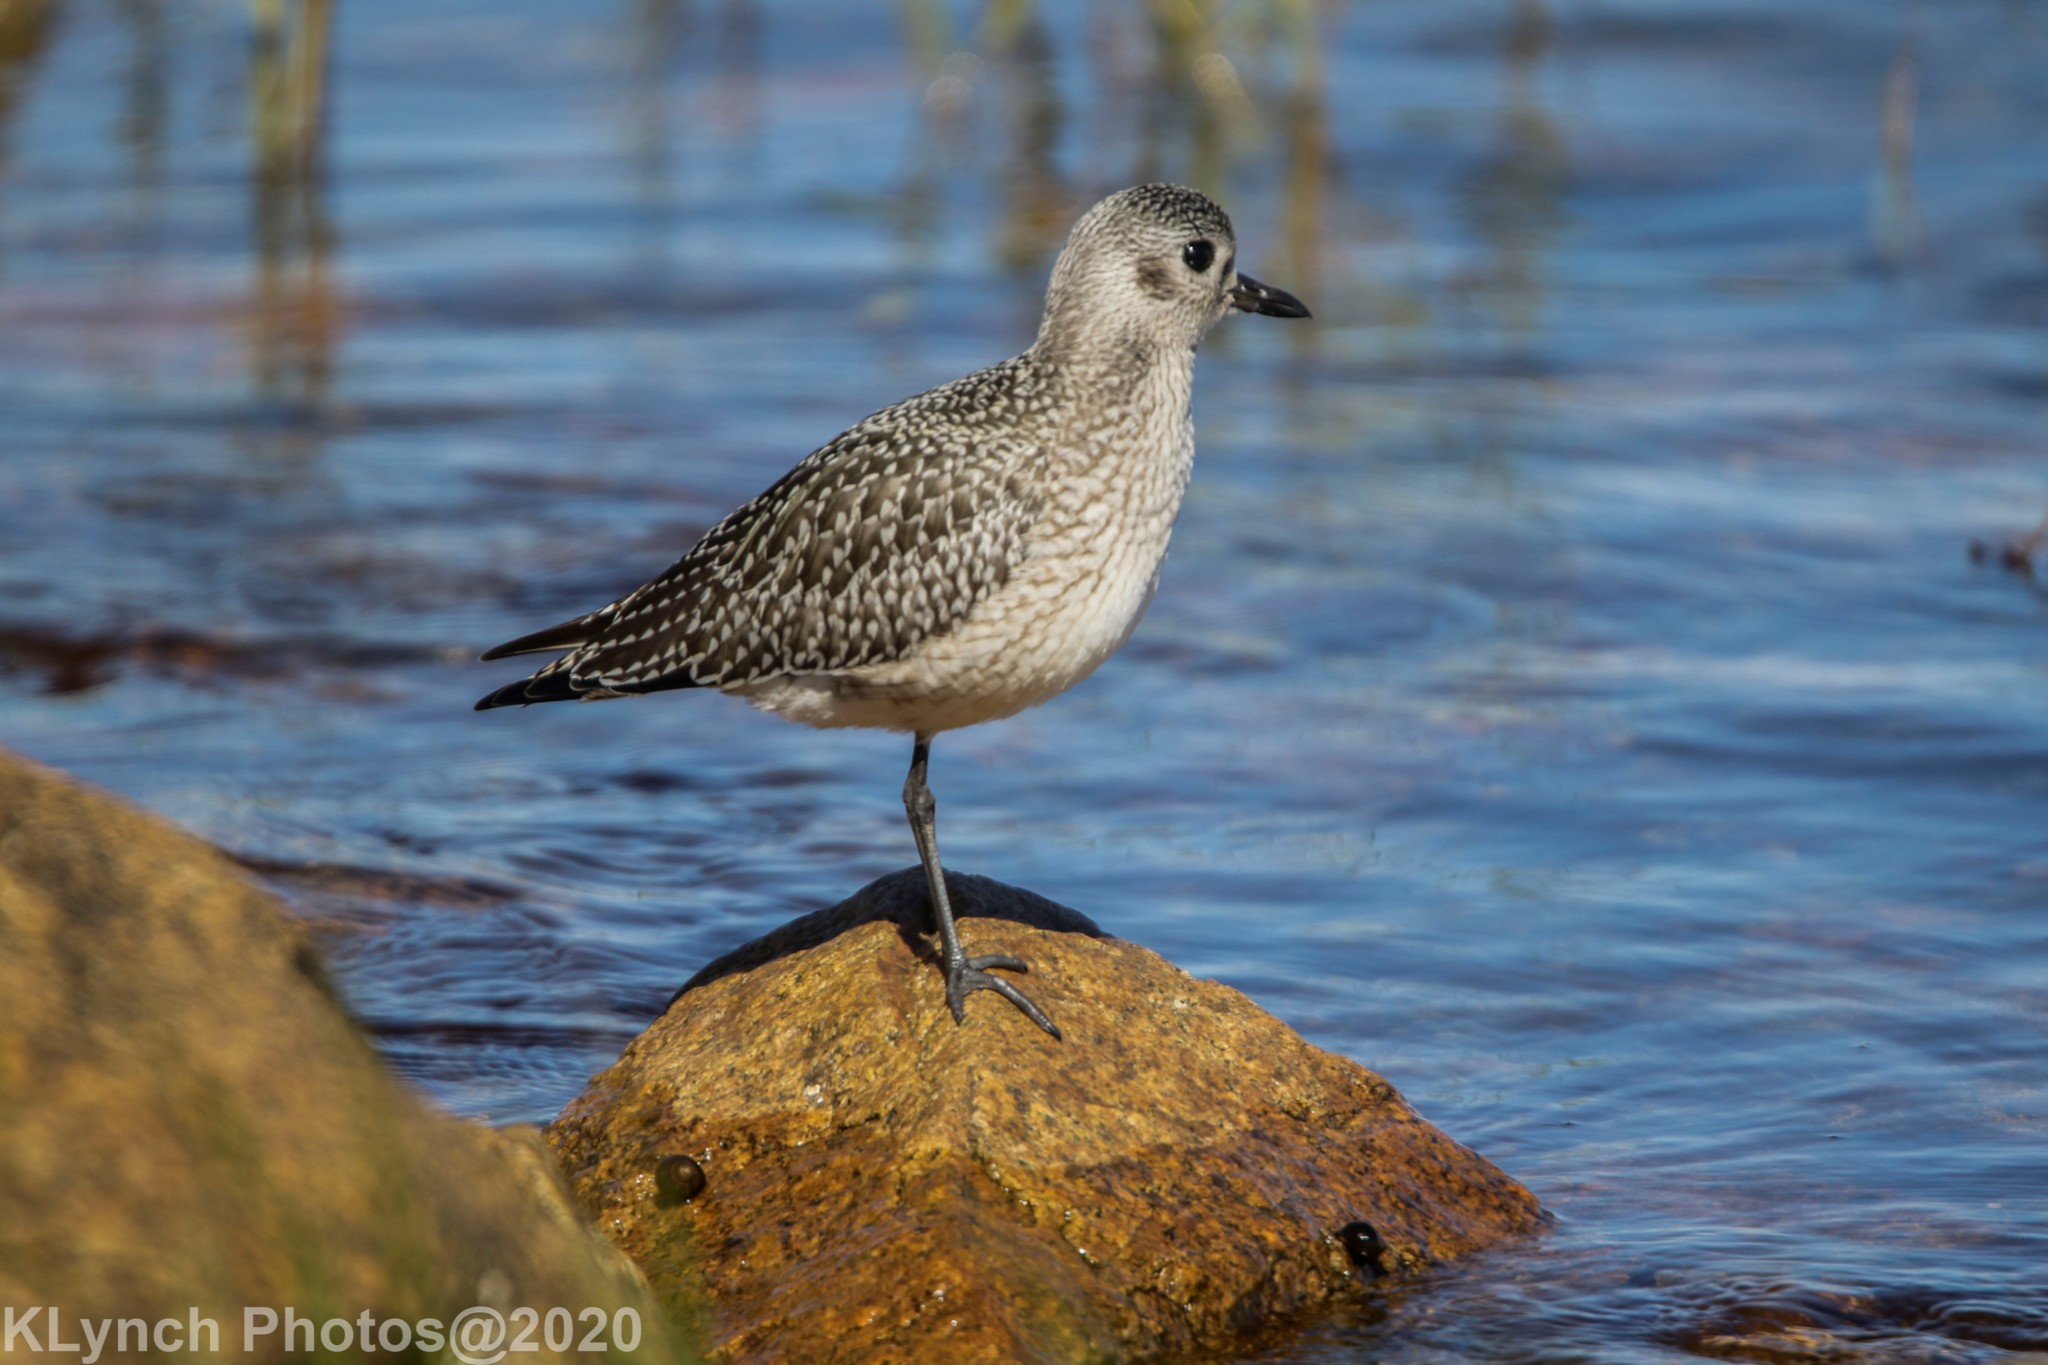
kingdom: Animalia
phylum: Chordata
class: Aves
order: Charadriiformes
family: Charadriidae
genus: Pluvialis
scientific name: Pluvialis squatarola
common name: Grey plover
